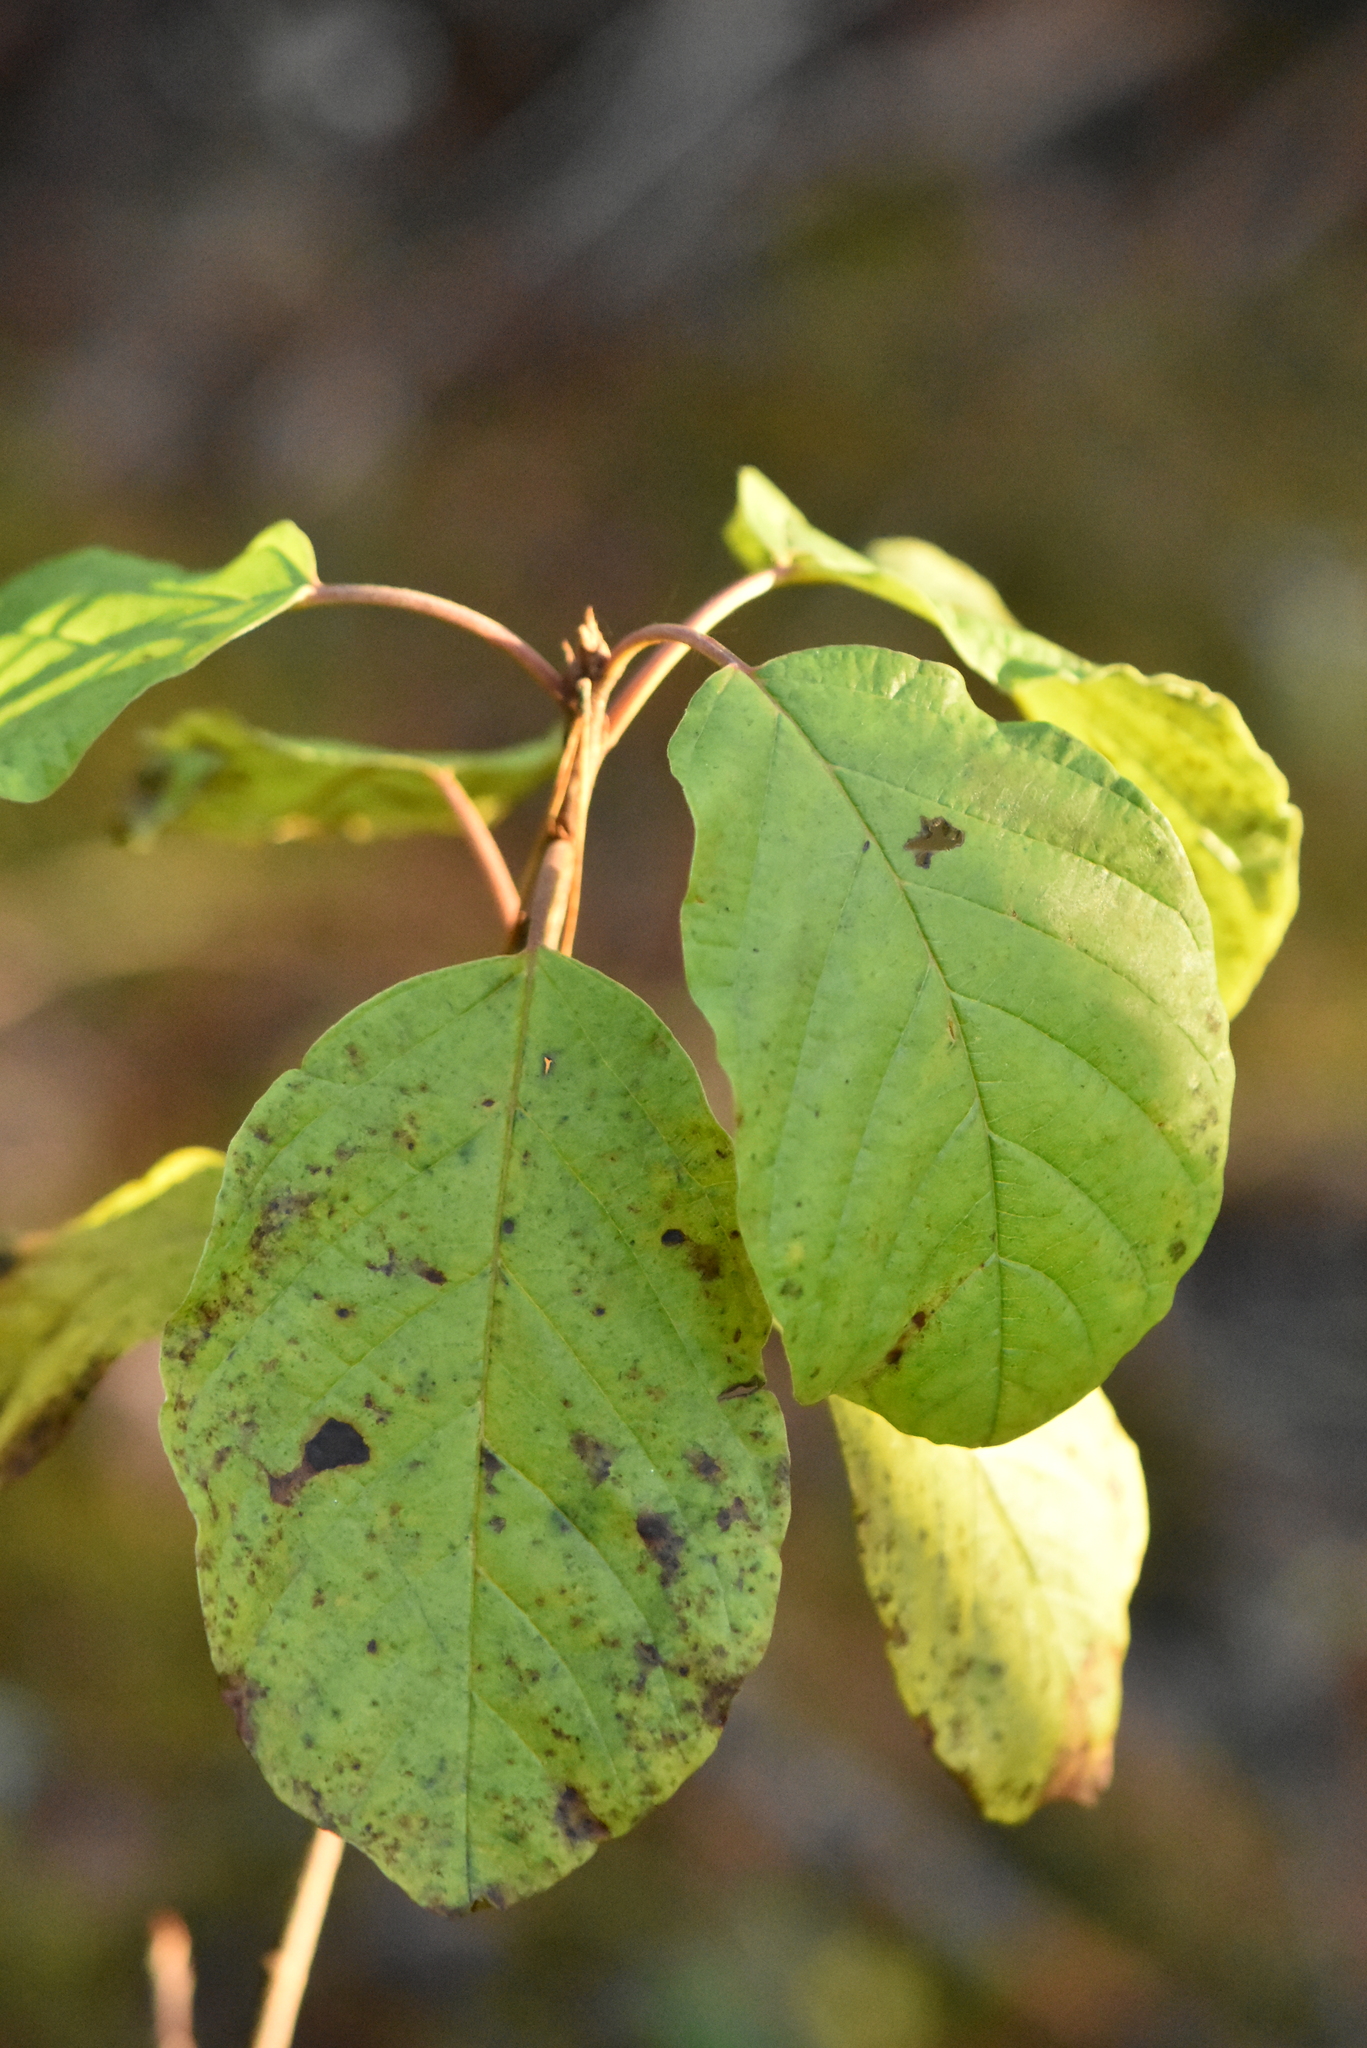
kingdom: Plantae
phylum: Tracheophyta
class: Magnoliopsida
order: Rosales
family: Rhamnaceae
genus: Frangula
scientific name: Frangula alnus
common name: Alder buckthorn
